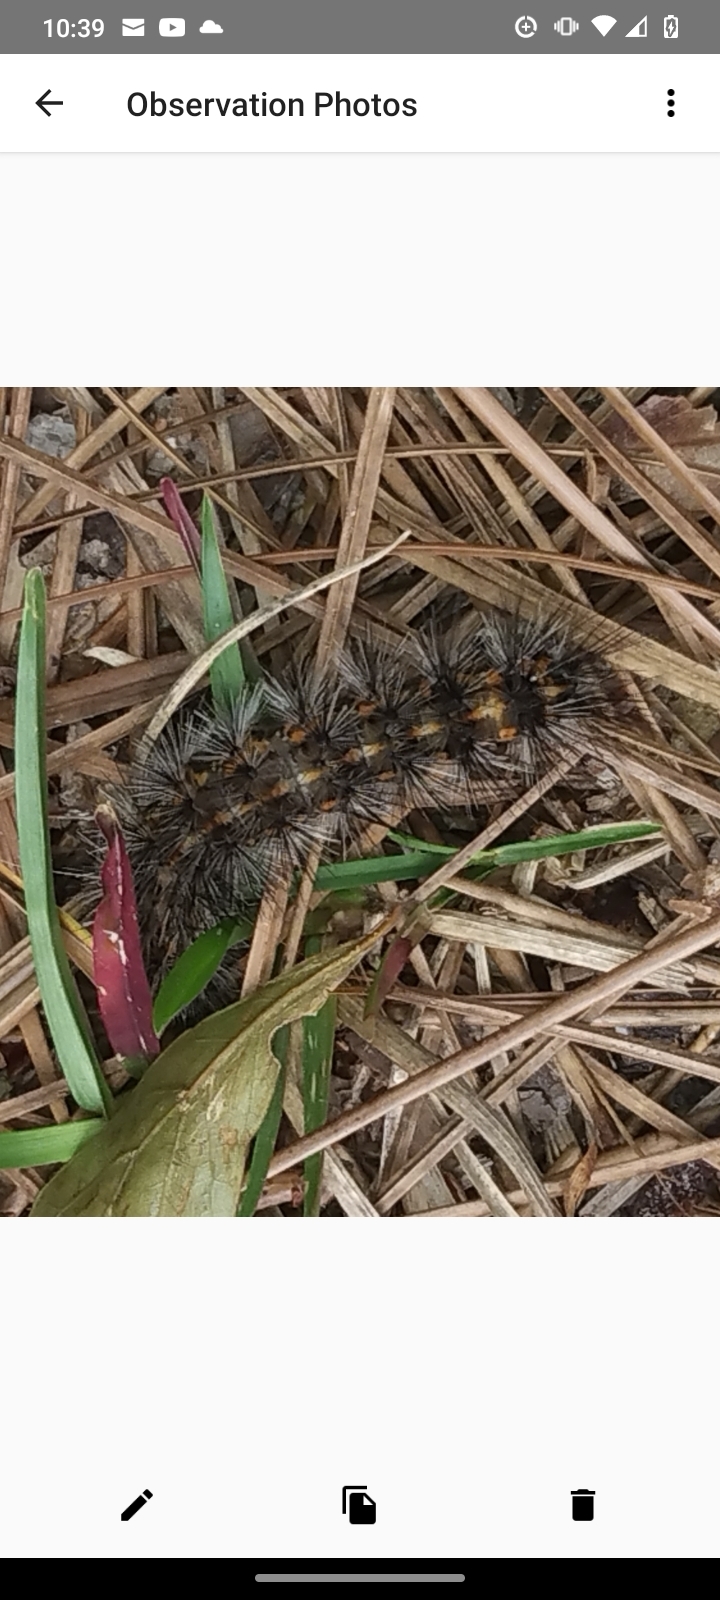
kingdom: Animalia
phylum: Arthropoda
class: Insecta
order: Lepidoptera
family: Erebidae
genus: Spilosoma
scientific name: Spilosoma dubia
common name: Dubious tiger moth
